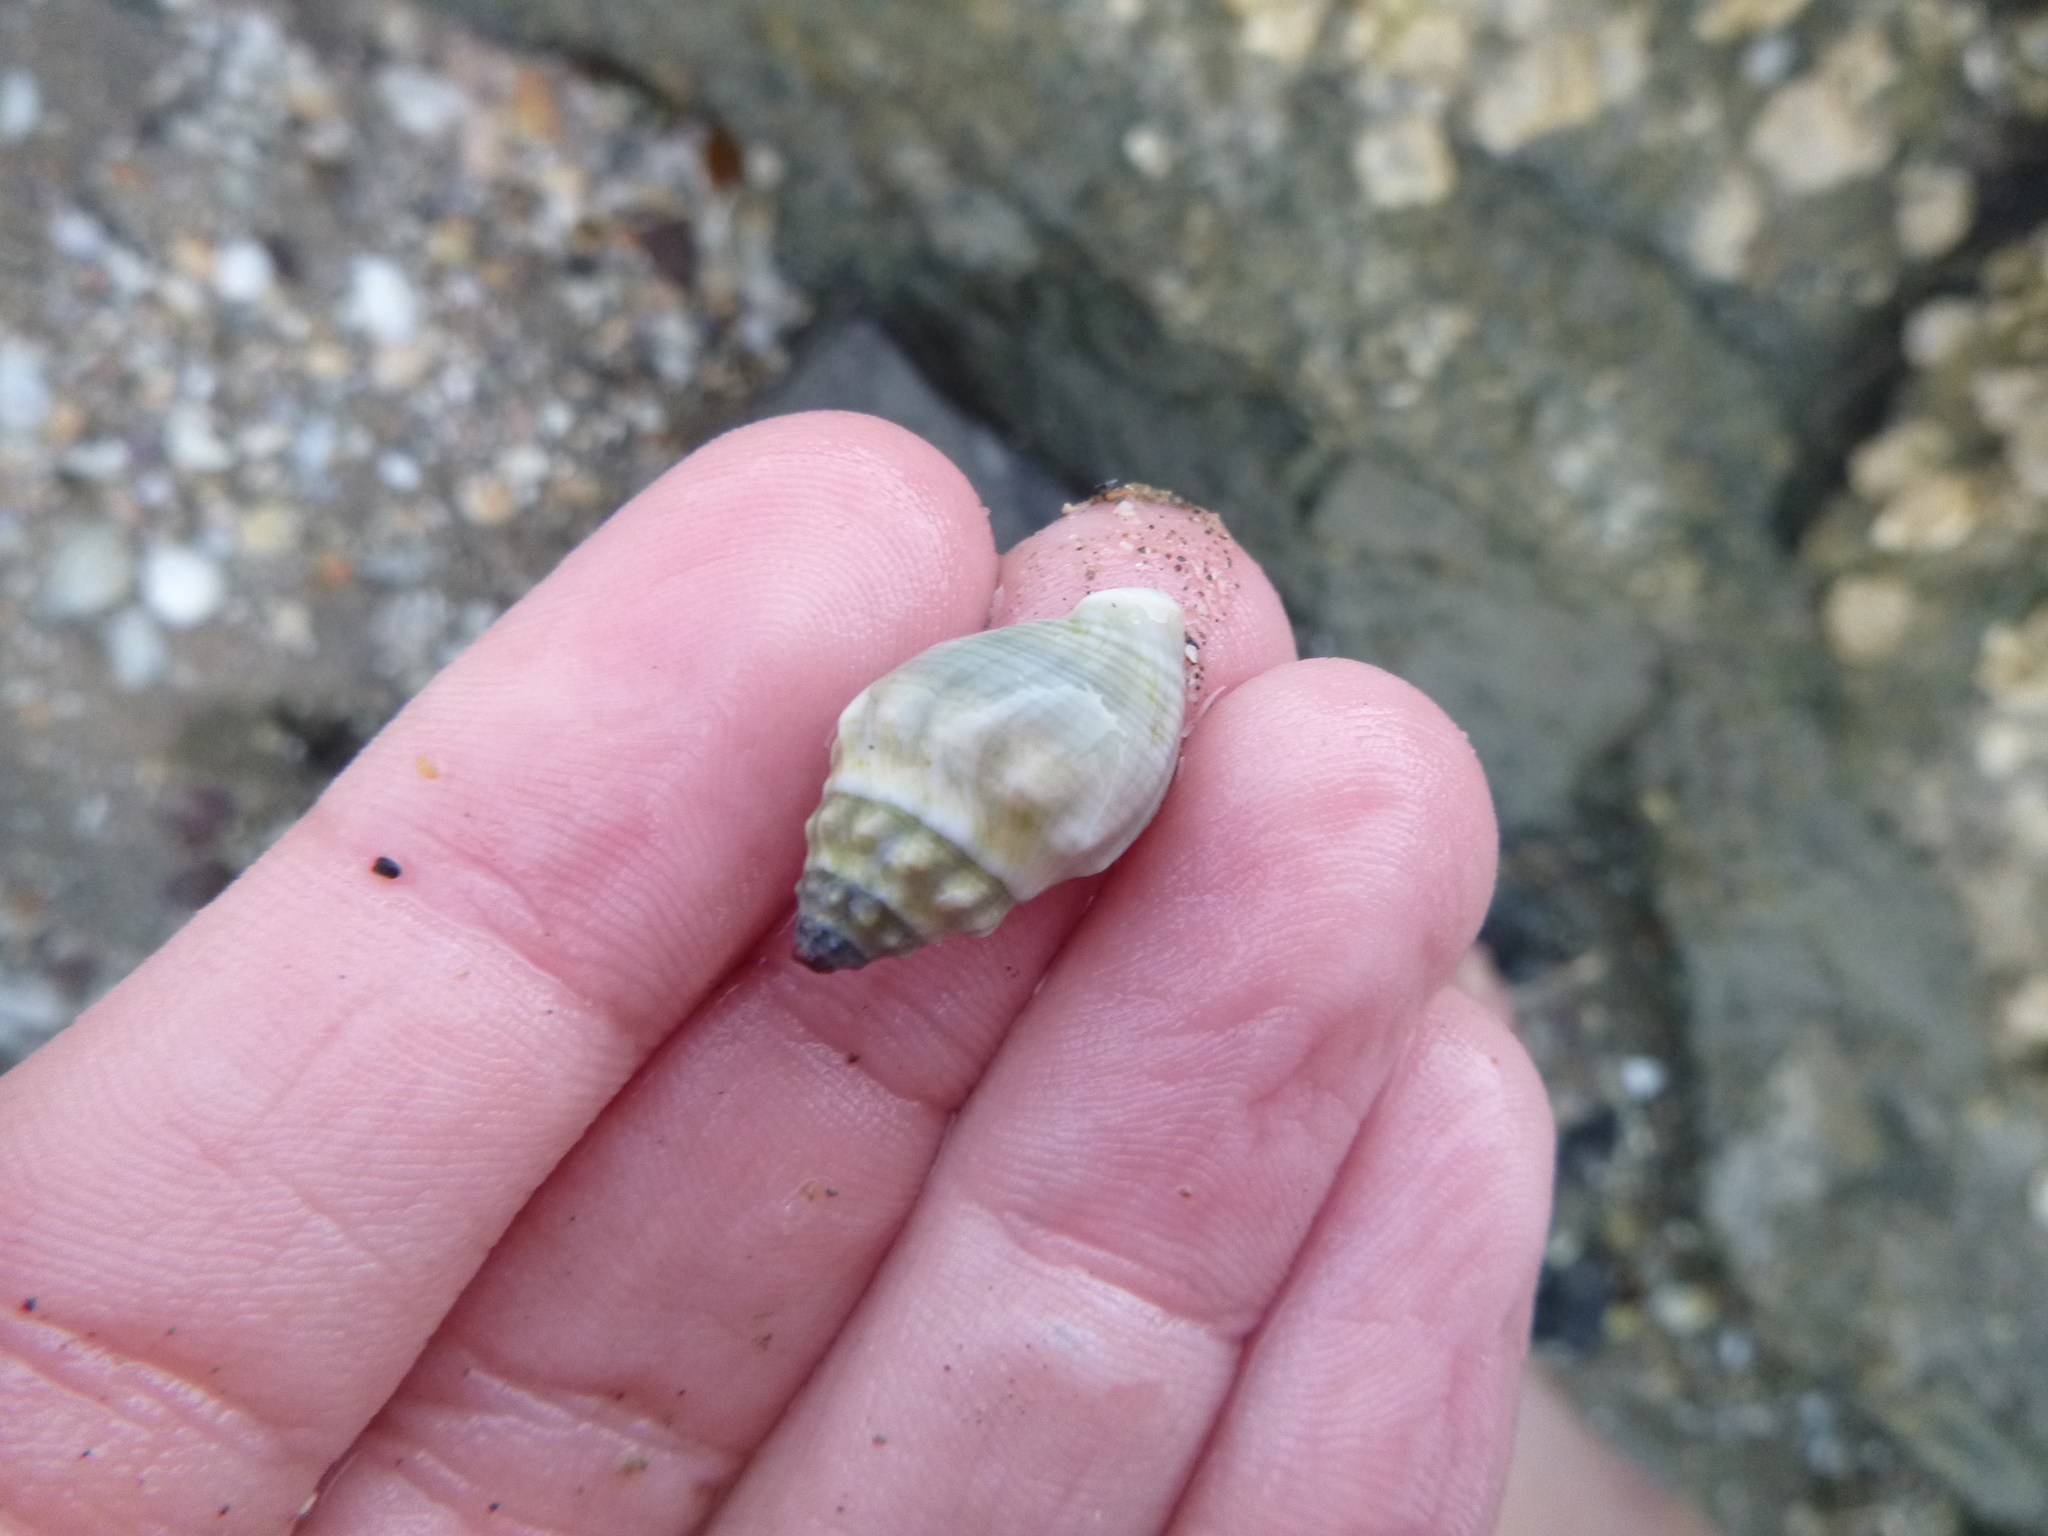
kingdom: Animalia
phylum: Mollusca
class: Gastropoda
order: Neogastropoda
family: Cominellidae
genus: Cominella
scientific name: Cominella glandiformis
